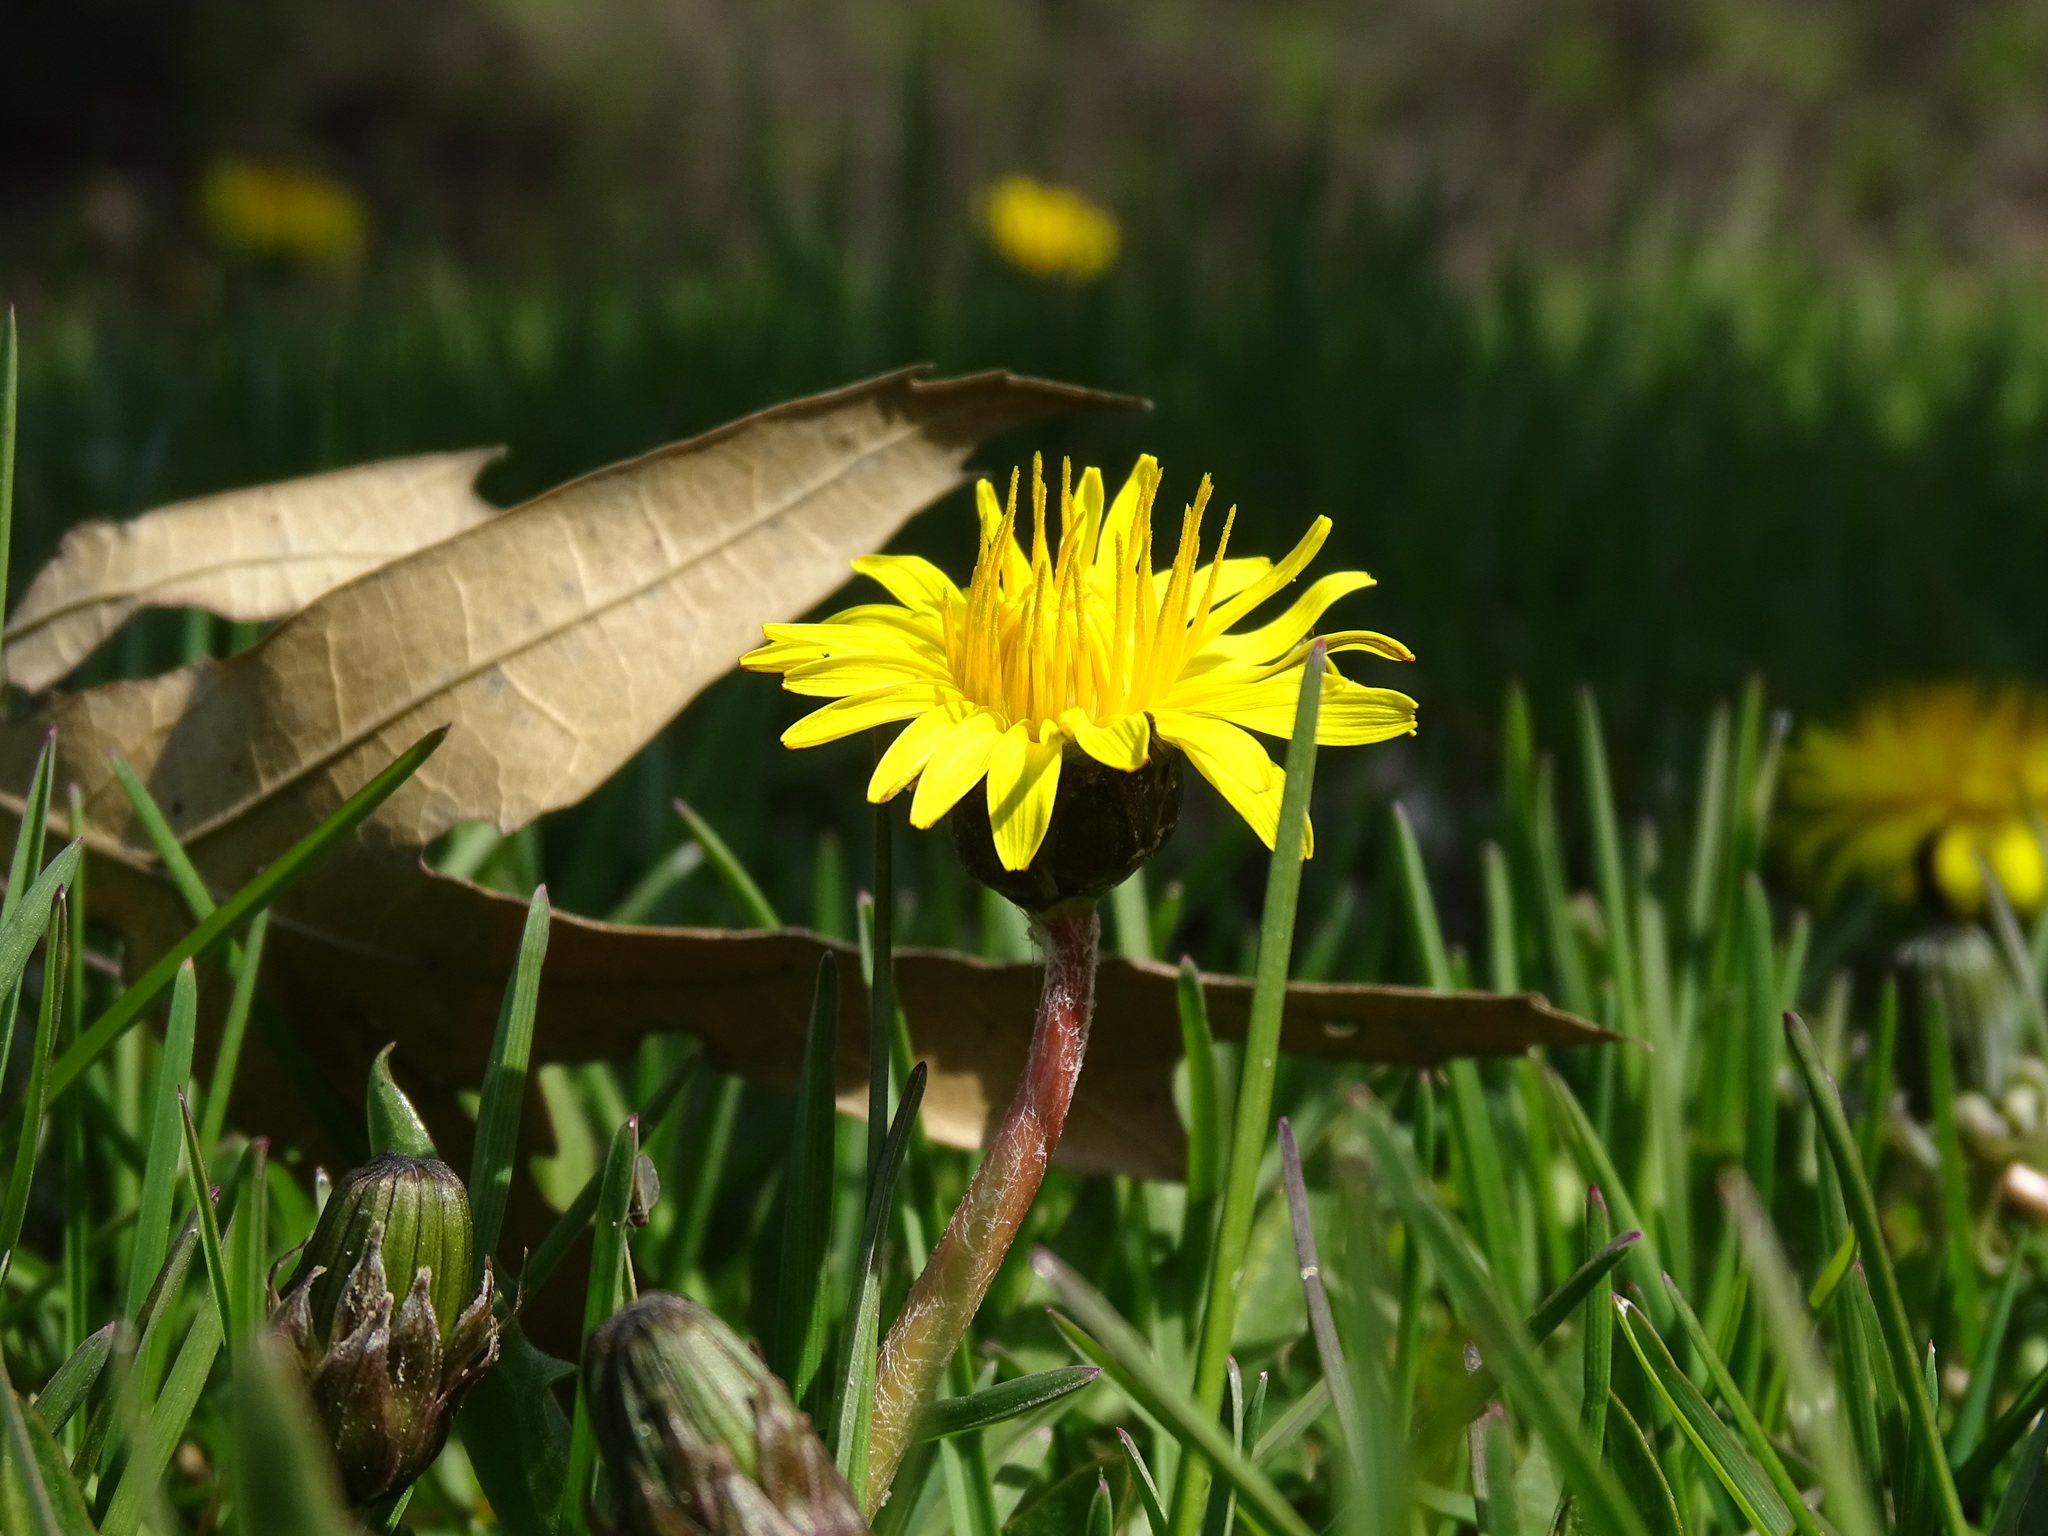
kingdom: Plantae
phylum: Tracheophyta
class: Magnoliopsida
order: Asterales
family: Asteraceae
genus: Taraxacum
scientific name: Taraxacum palustre
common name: Marsh dandelion
